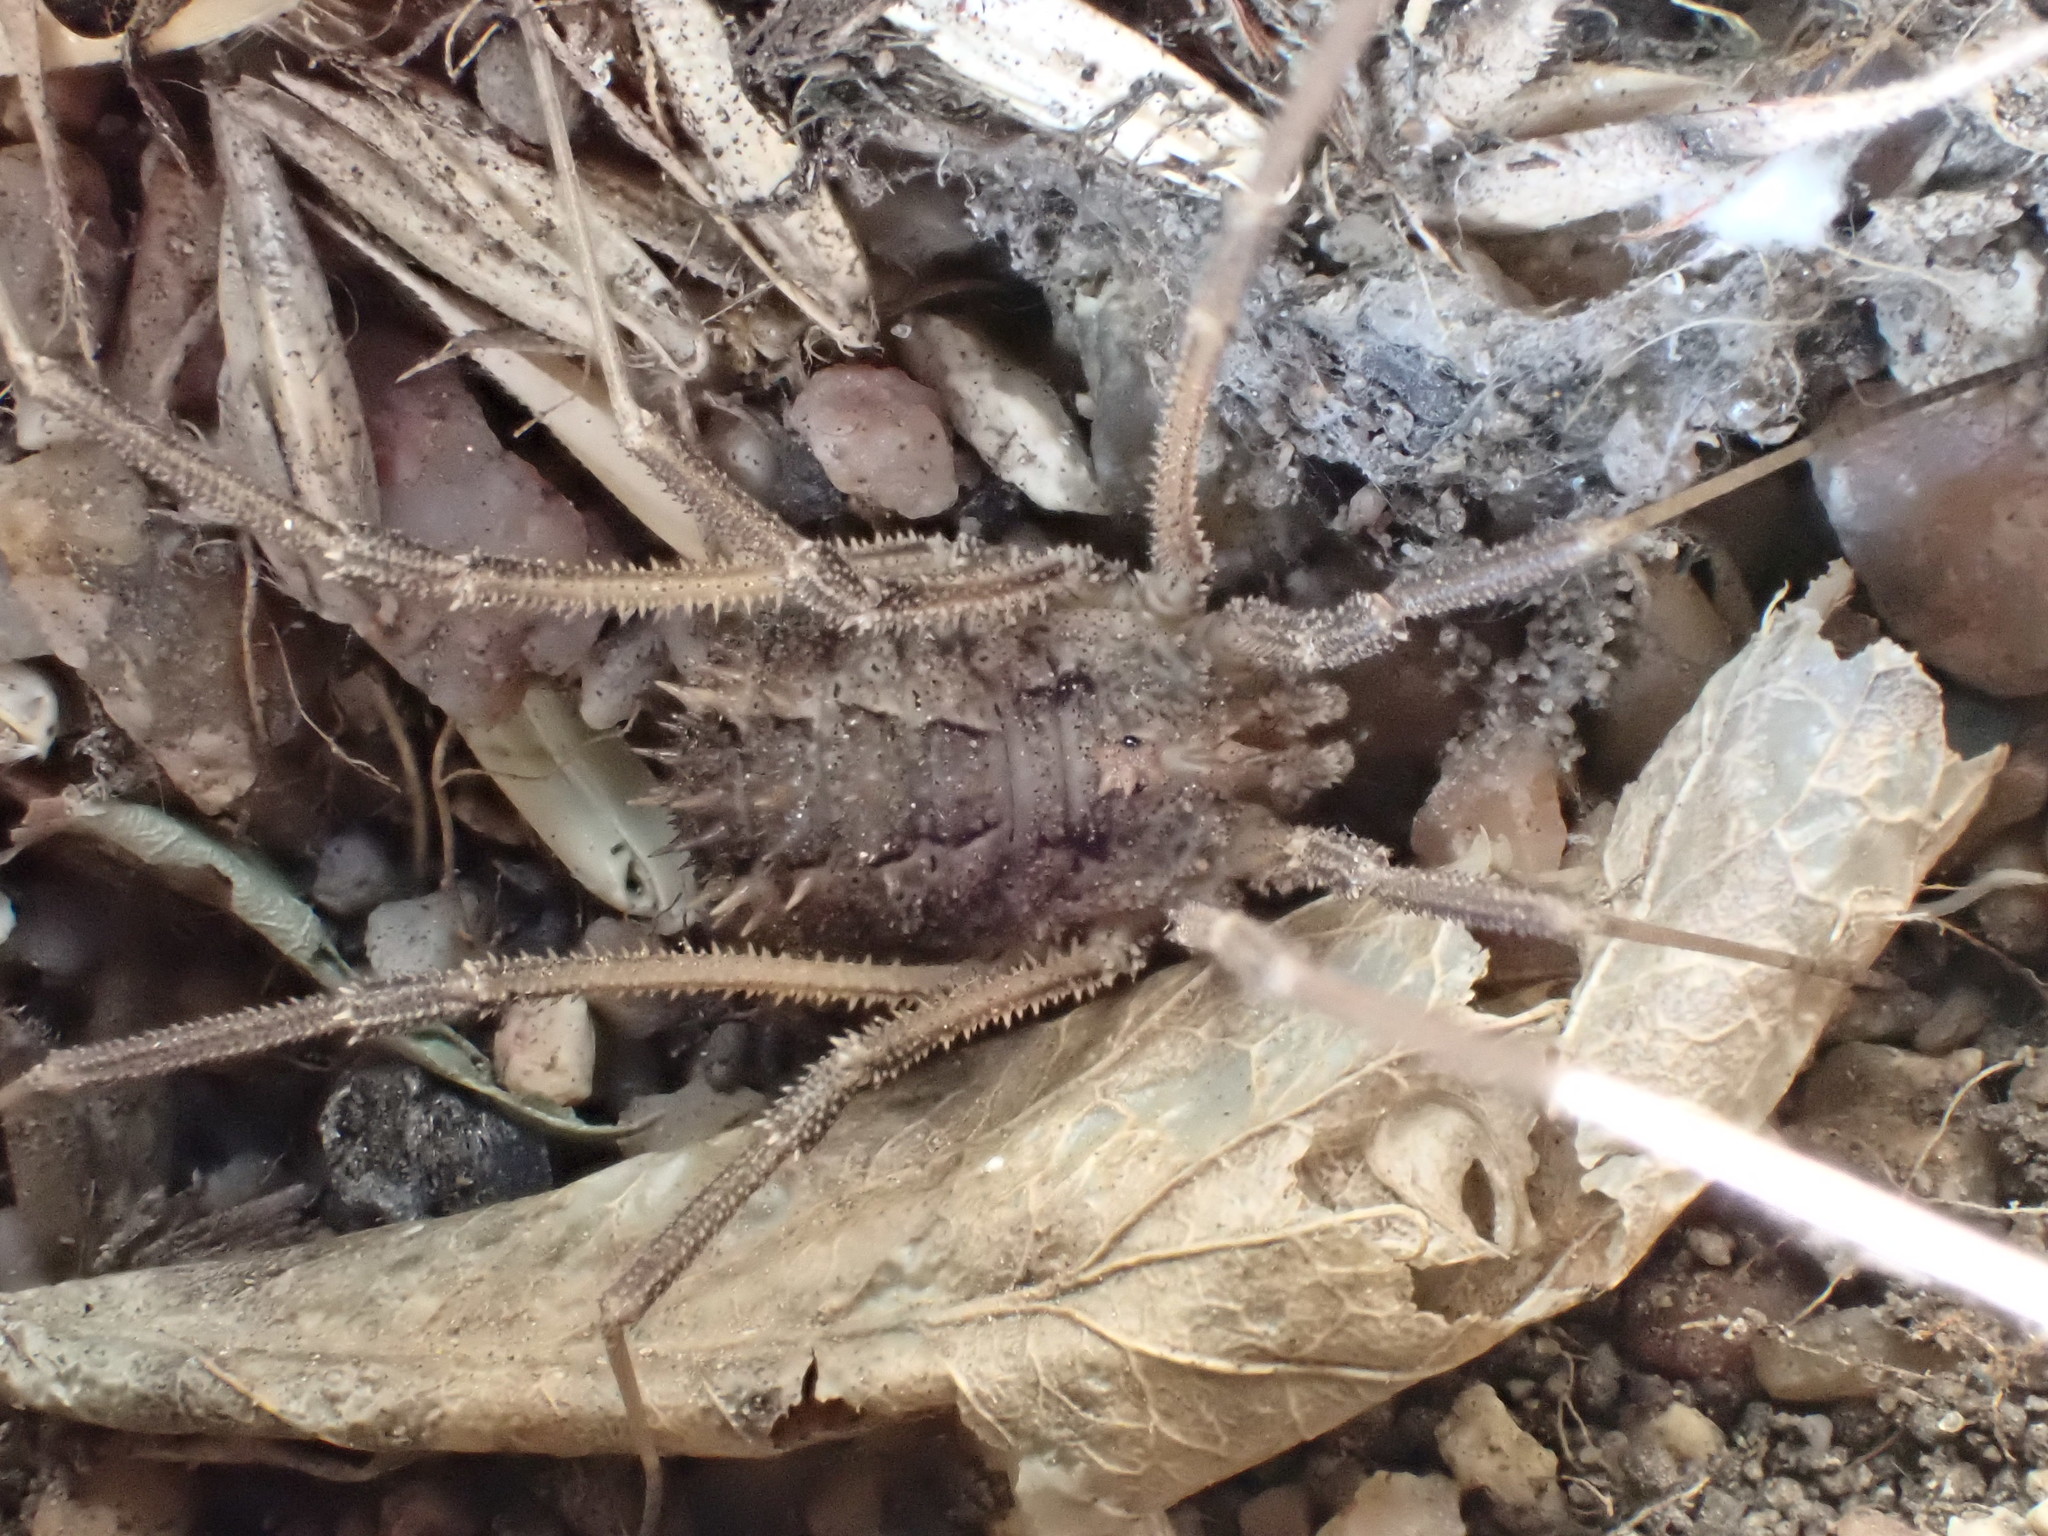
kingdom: Animalia
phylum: Arthropoda
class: Arachnida
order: Opiliones
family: Phalangiidae
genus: Rhampsinitus
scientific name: Rhampsinitus telifrons
